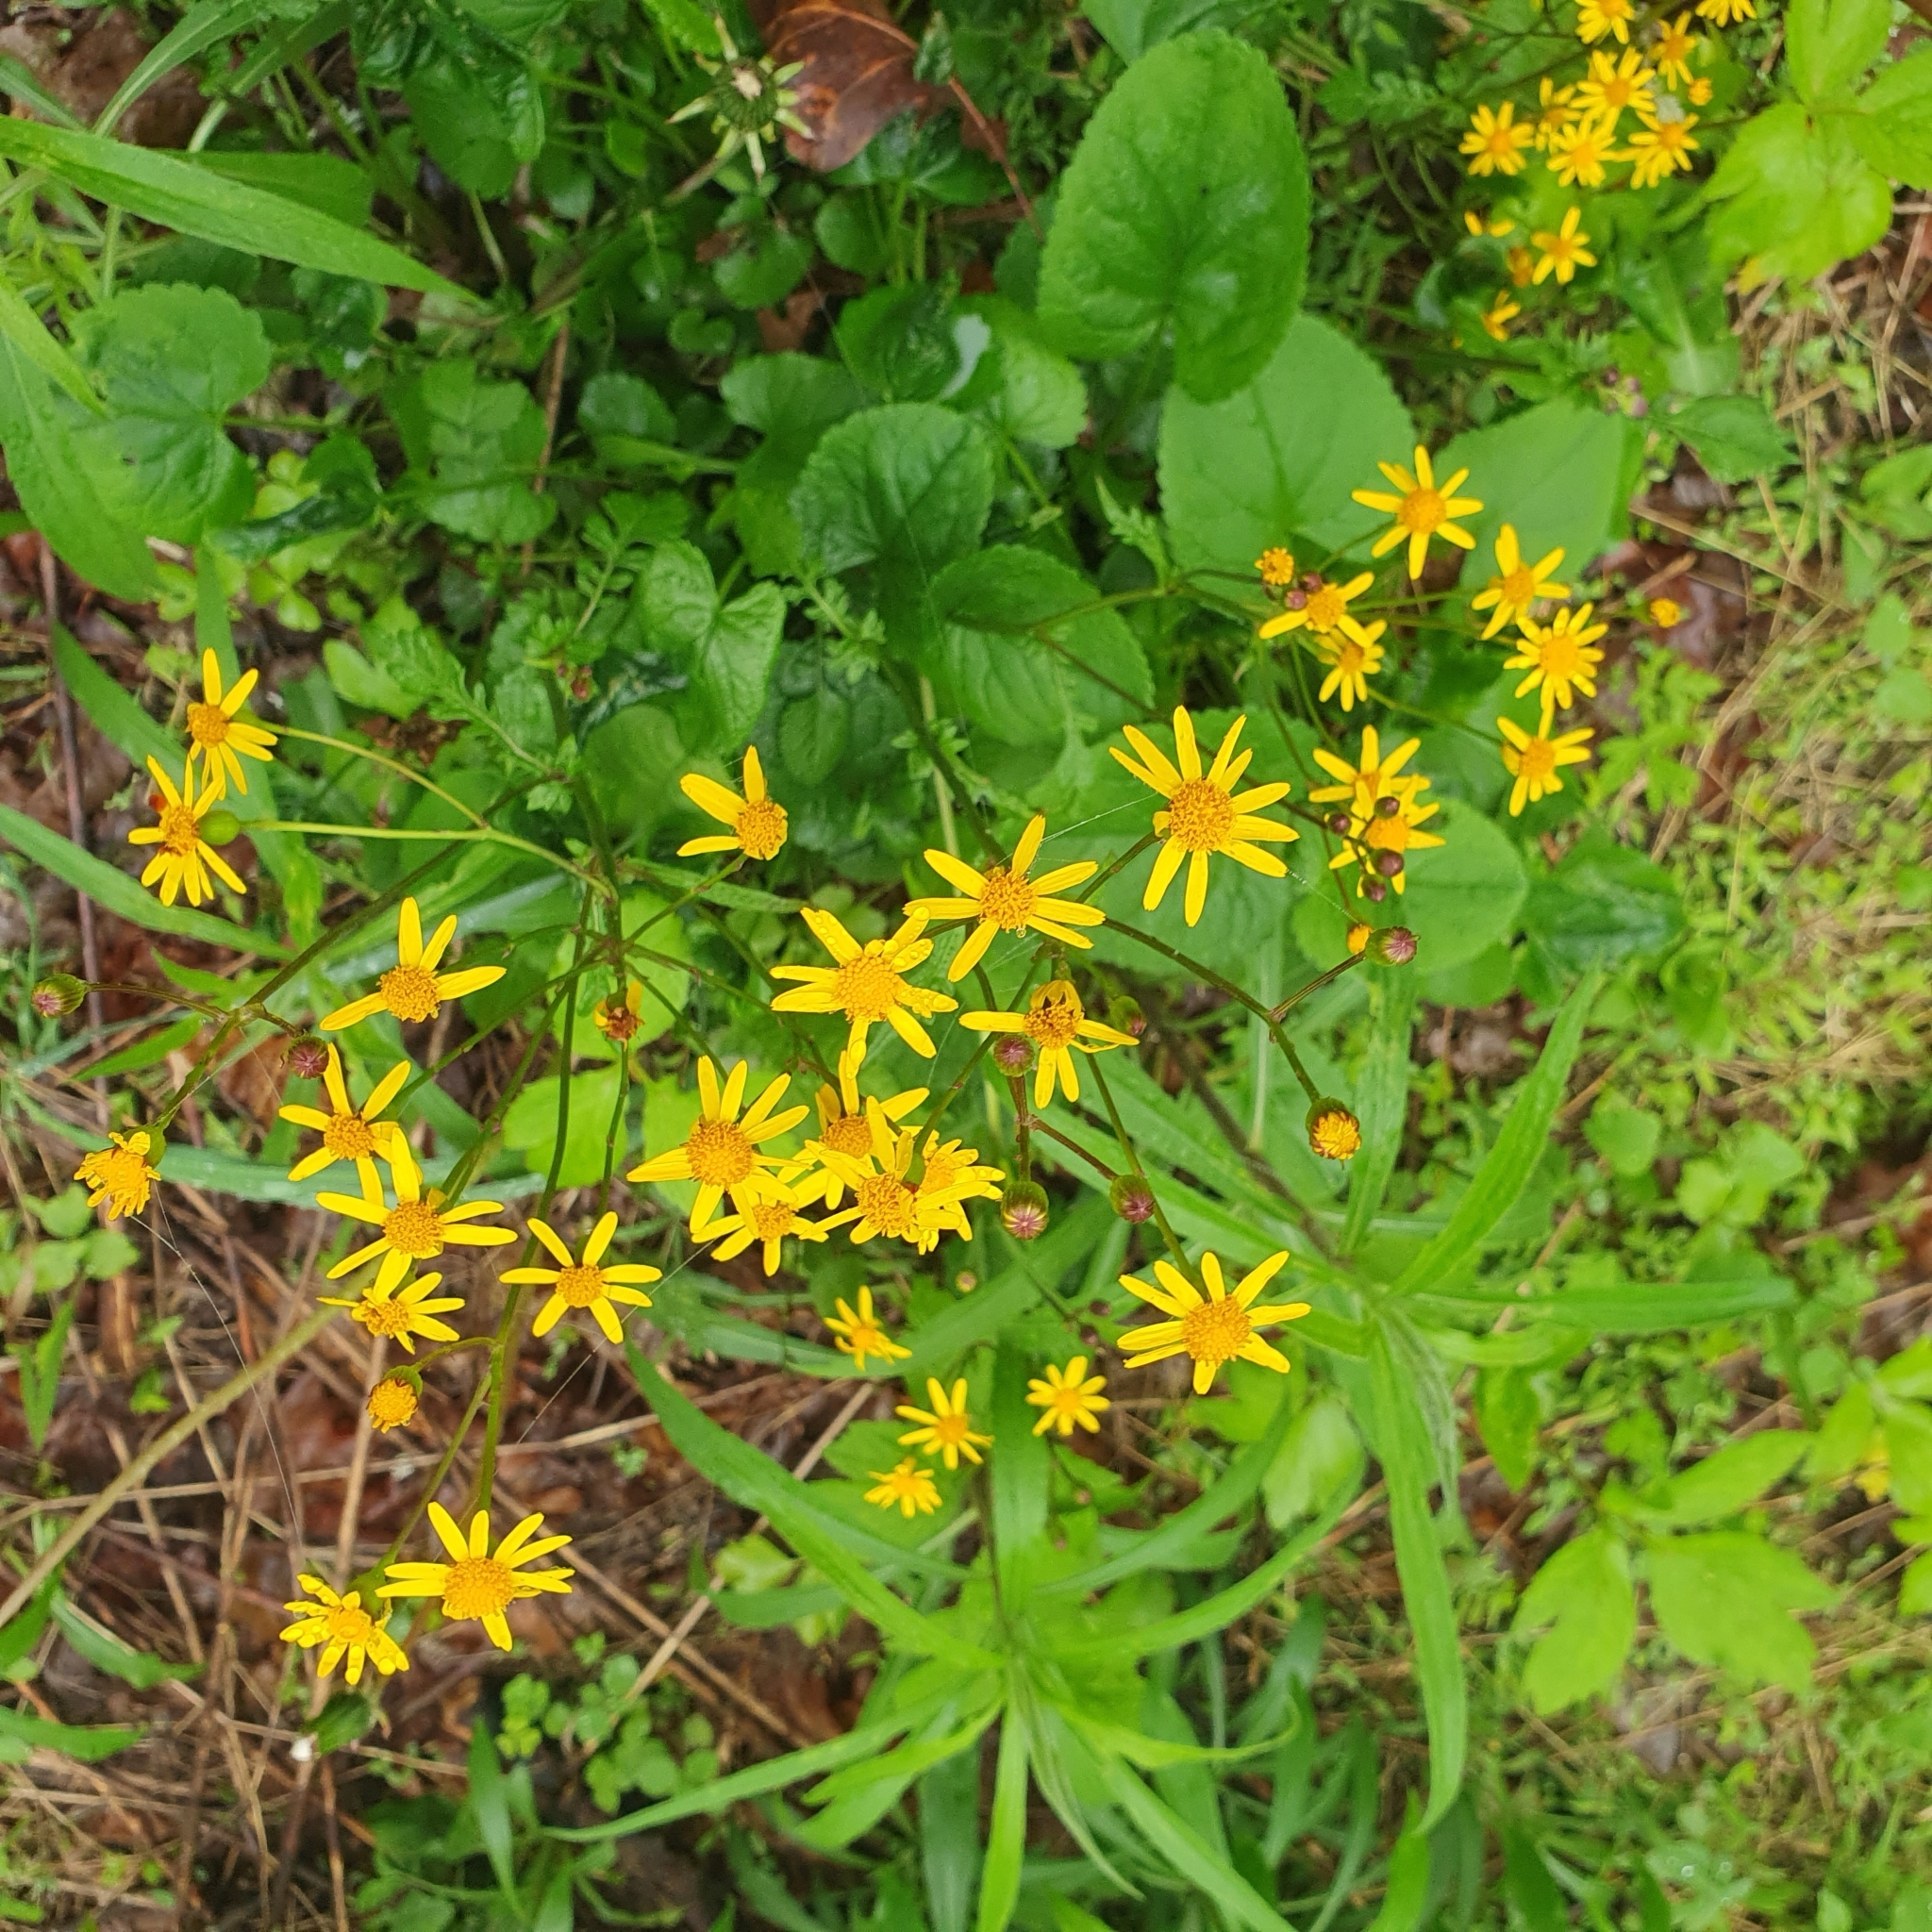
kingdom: Plantae
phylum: Tracheophyta
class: Magnoliopsida
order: Asterales
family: Asteraceae
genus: Packera
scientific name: Packera aurea
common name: Golden groundsel
